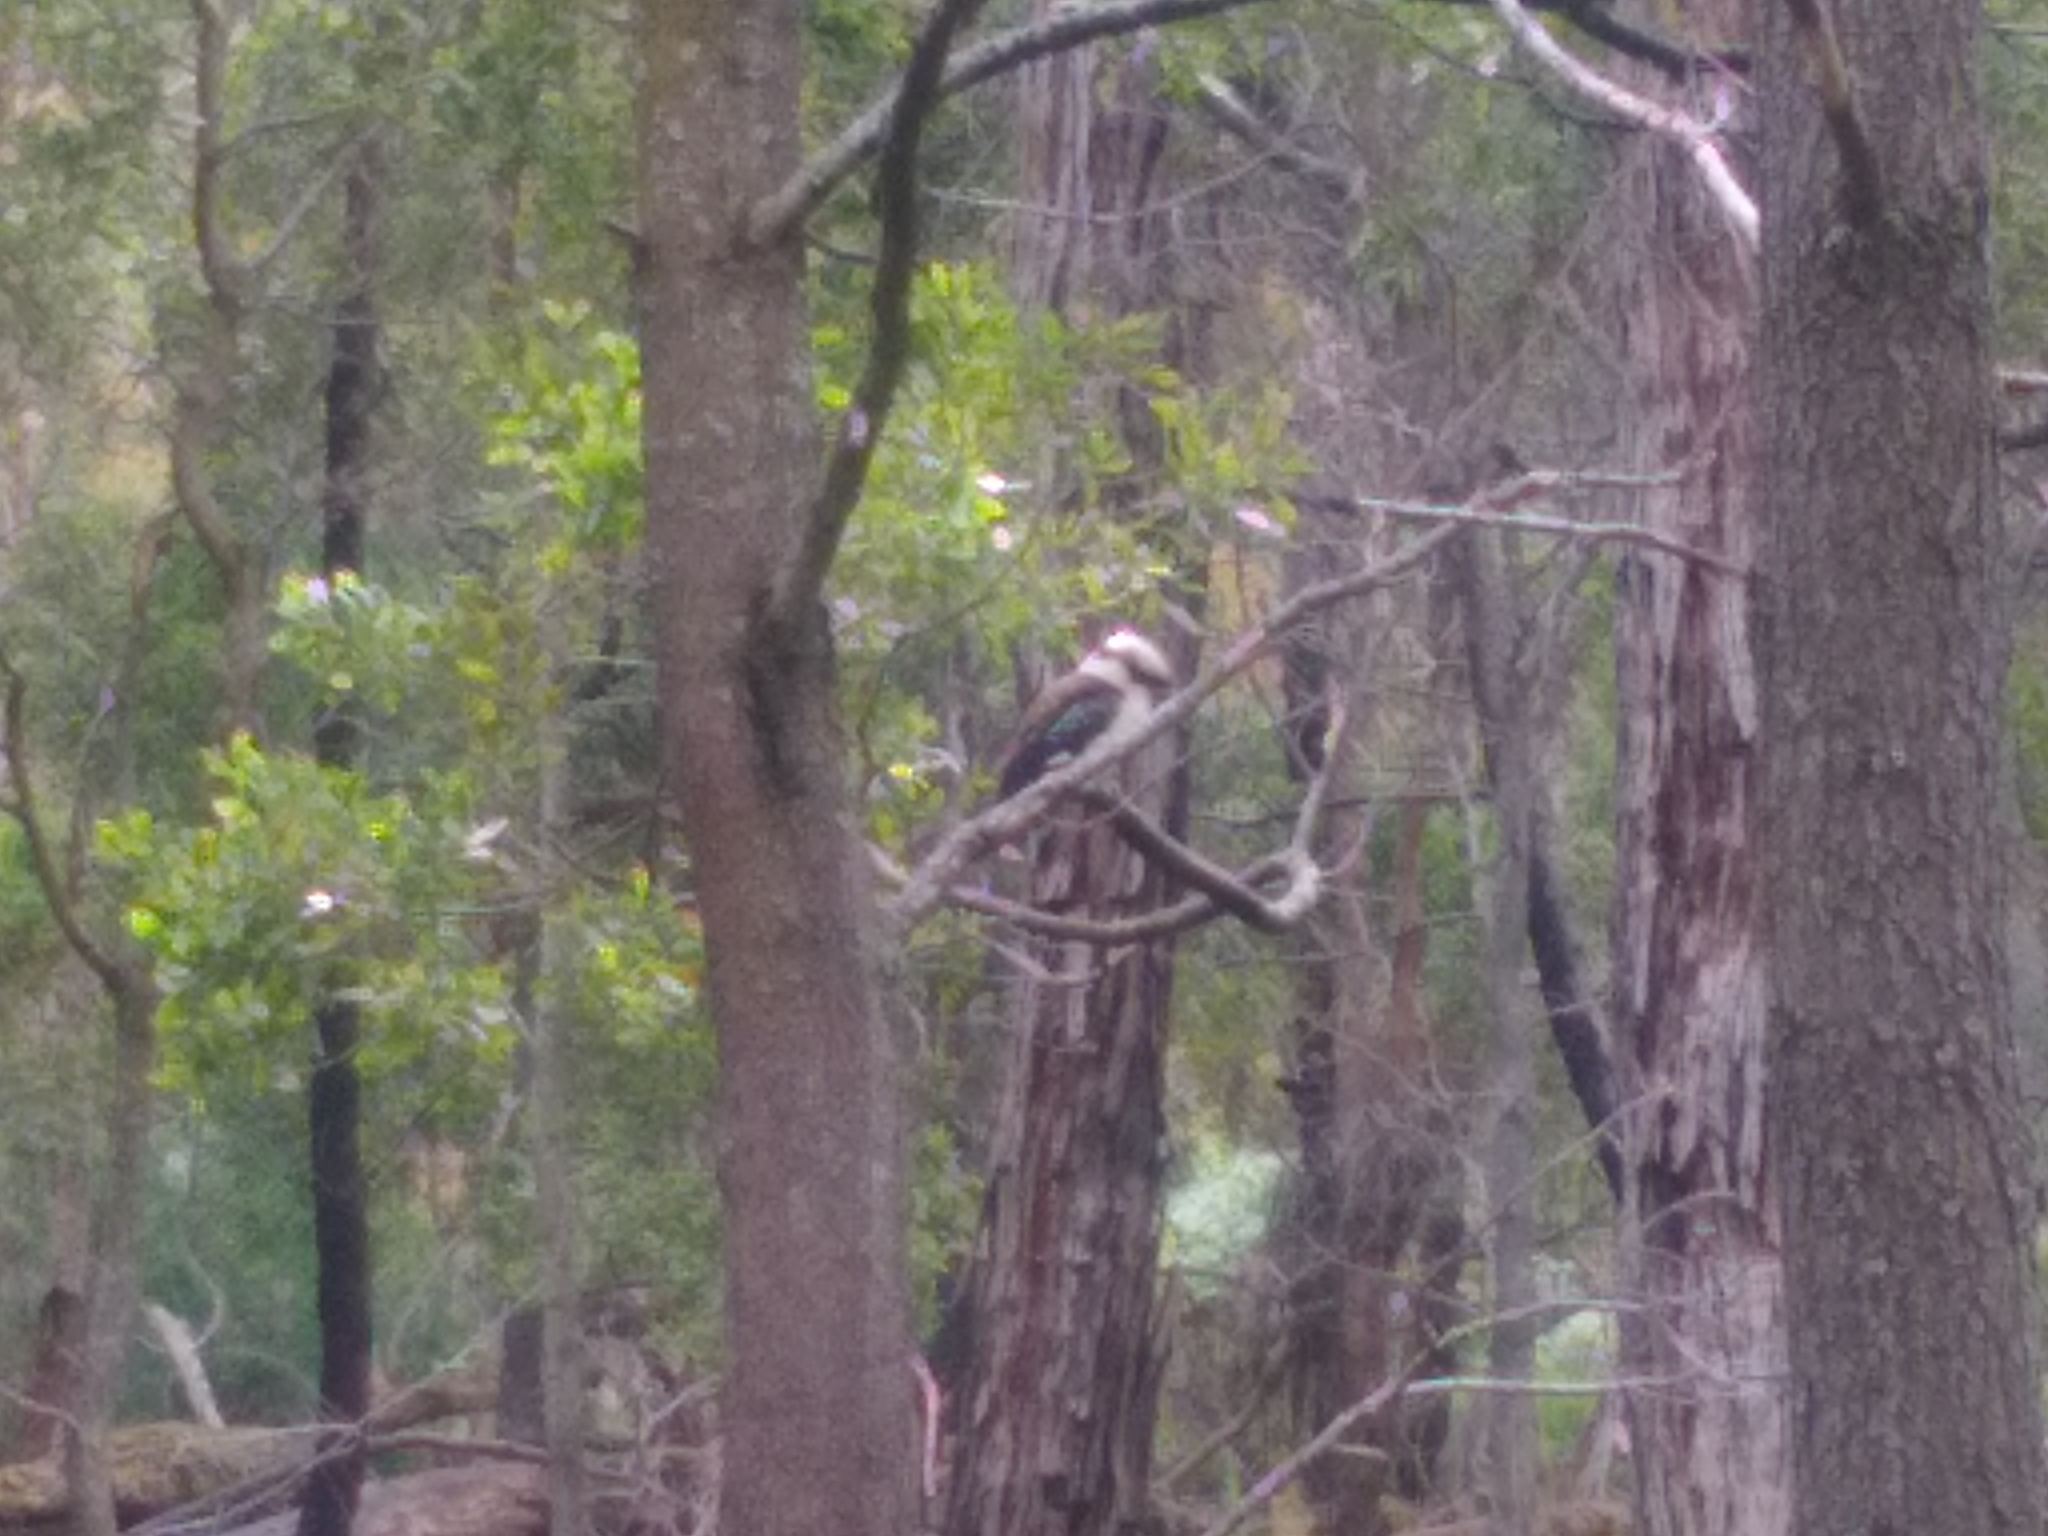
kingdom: Animalia
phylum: Chordata
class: Aves
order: Coraciiformes
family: Alcedinidae
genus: Dacelo
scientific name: Dacelo novaeguineae
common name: Laughing kookaburra
